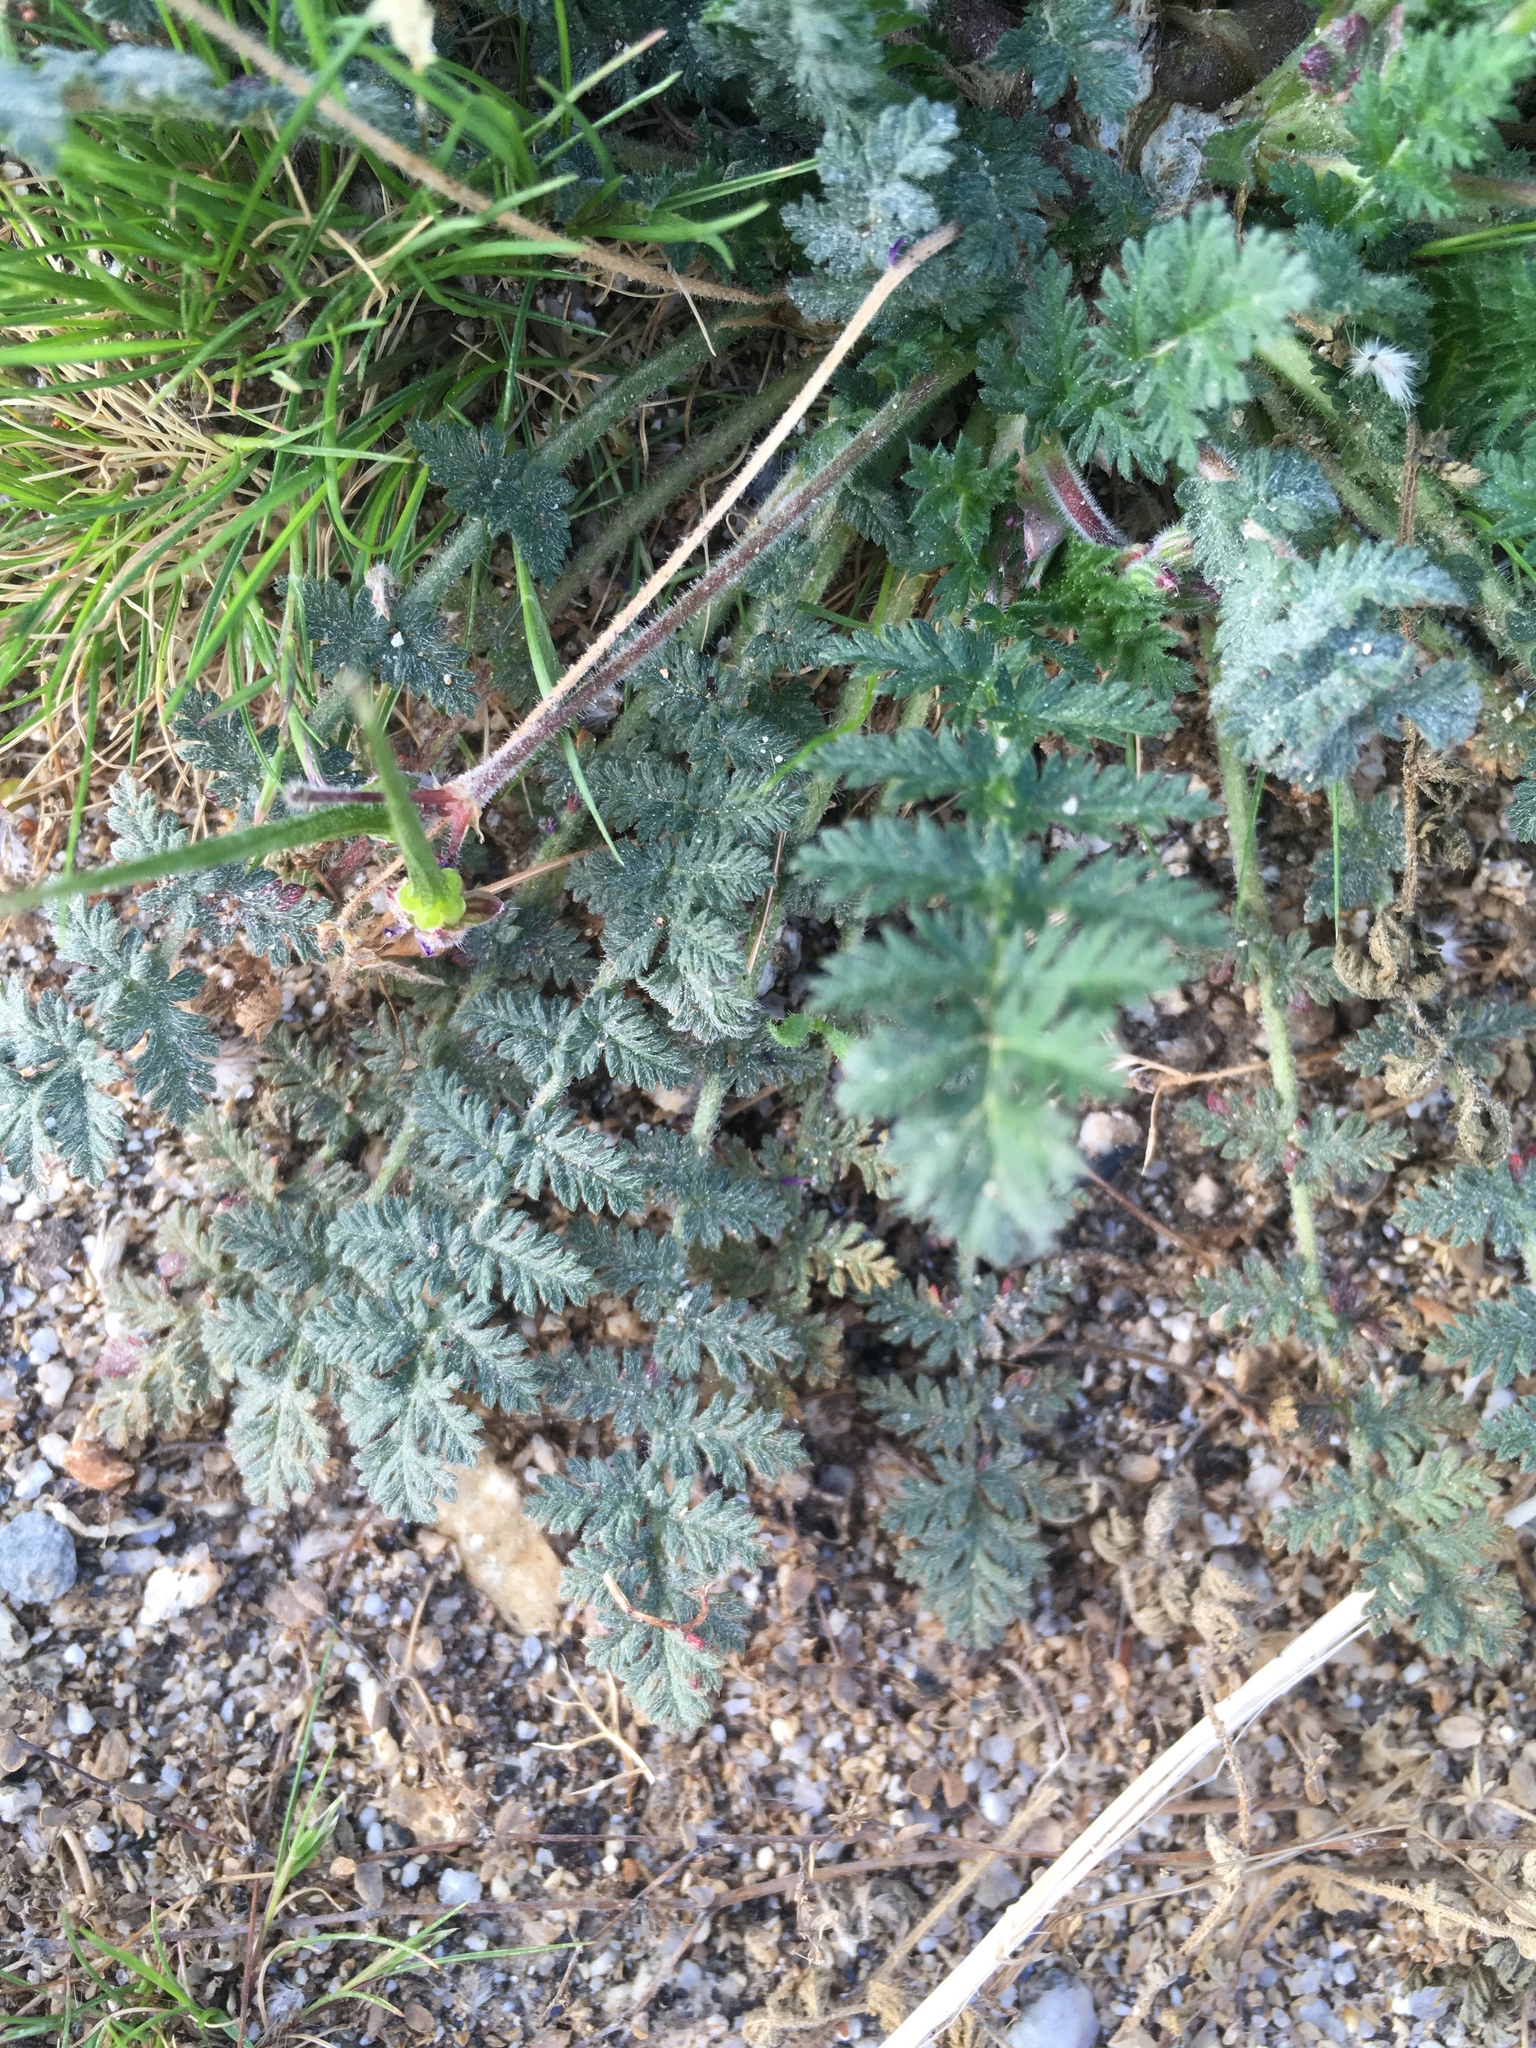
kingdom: Plantae
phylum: Tracheophyta
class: Magnoliopsida
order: Geraniales
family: Geraniaceae
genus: Erodium
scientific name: Erodium cicutarium
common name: Common stork's-bill
